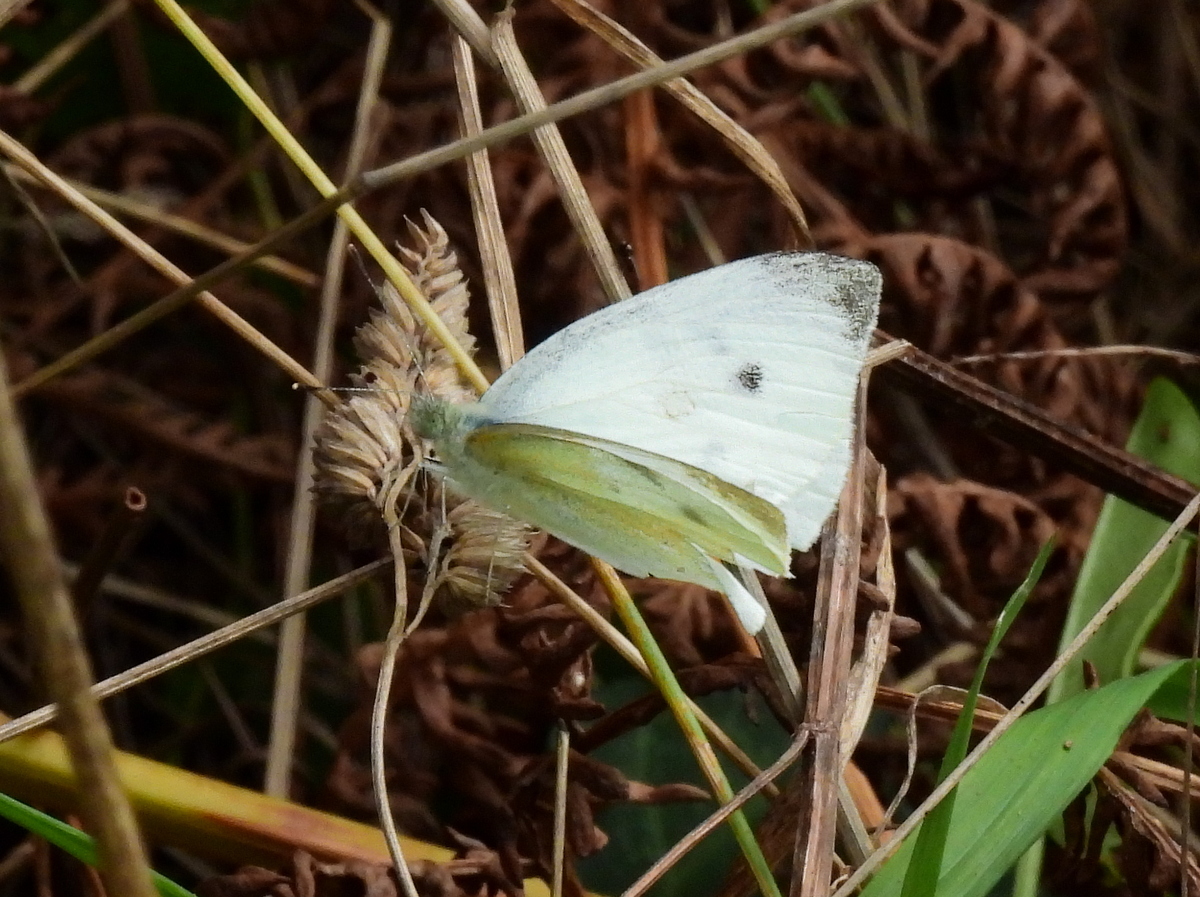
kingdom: Animalia
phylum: Arthropoda
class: Insecta
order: Lepidoptera
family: Pieridae
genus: Pieris
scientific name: Pieris rapae
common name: Small white
